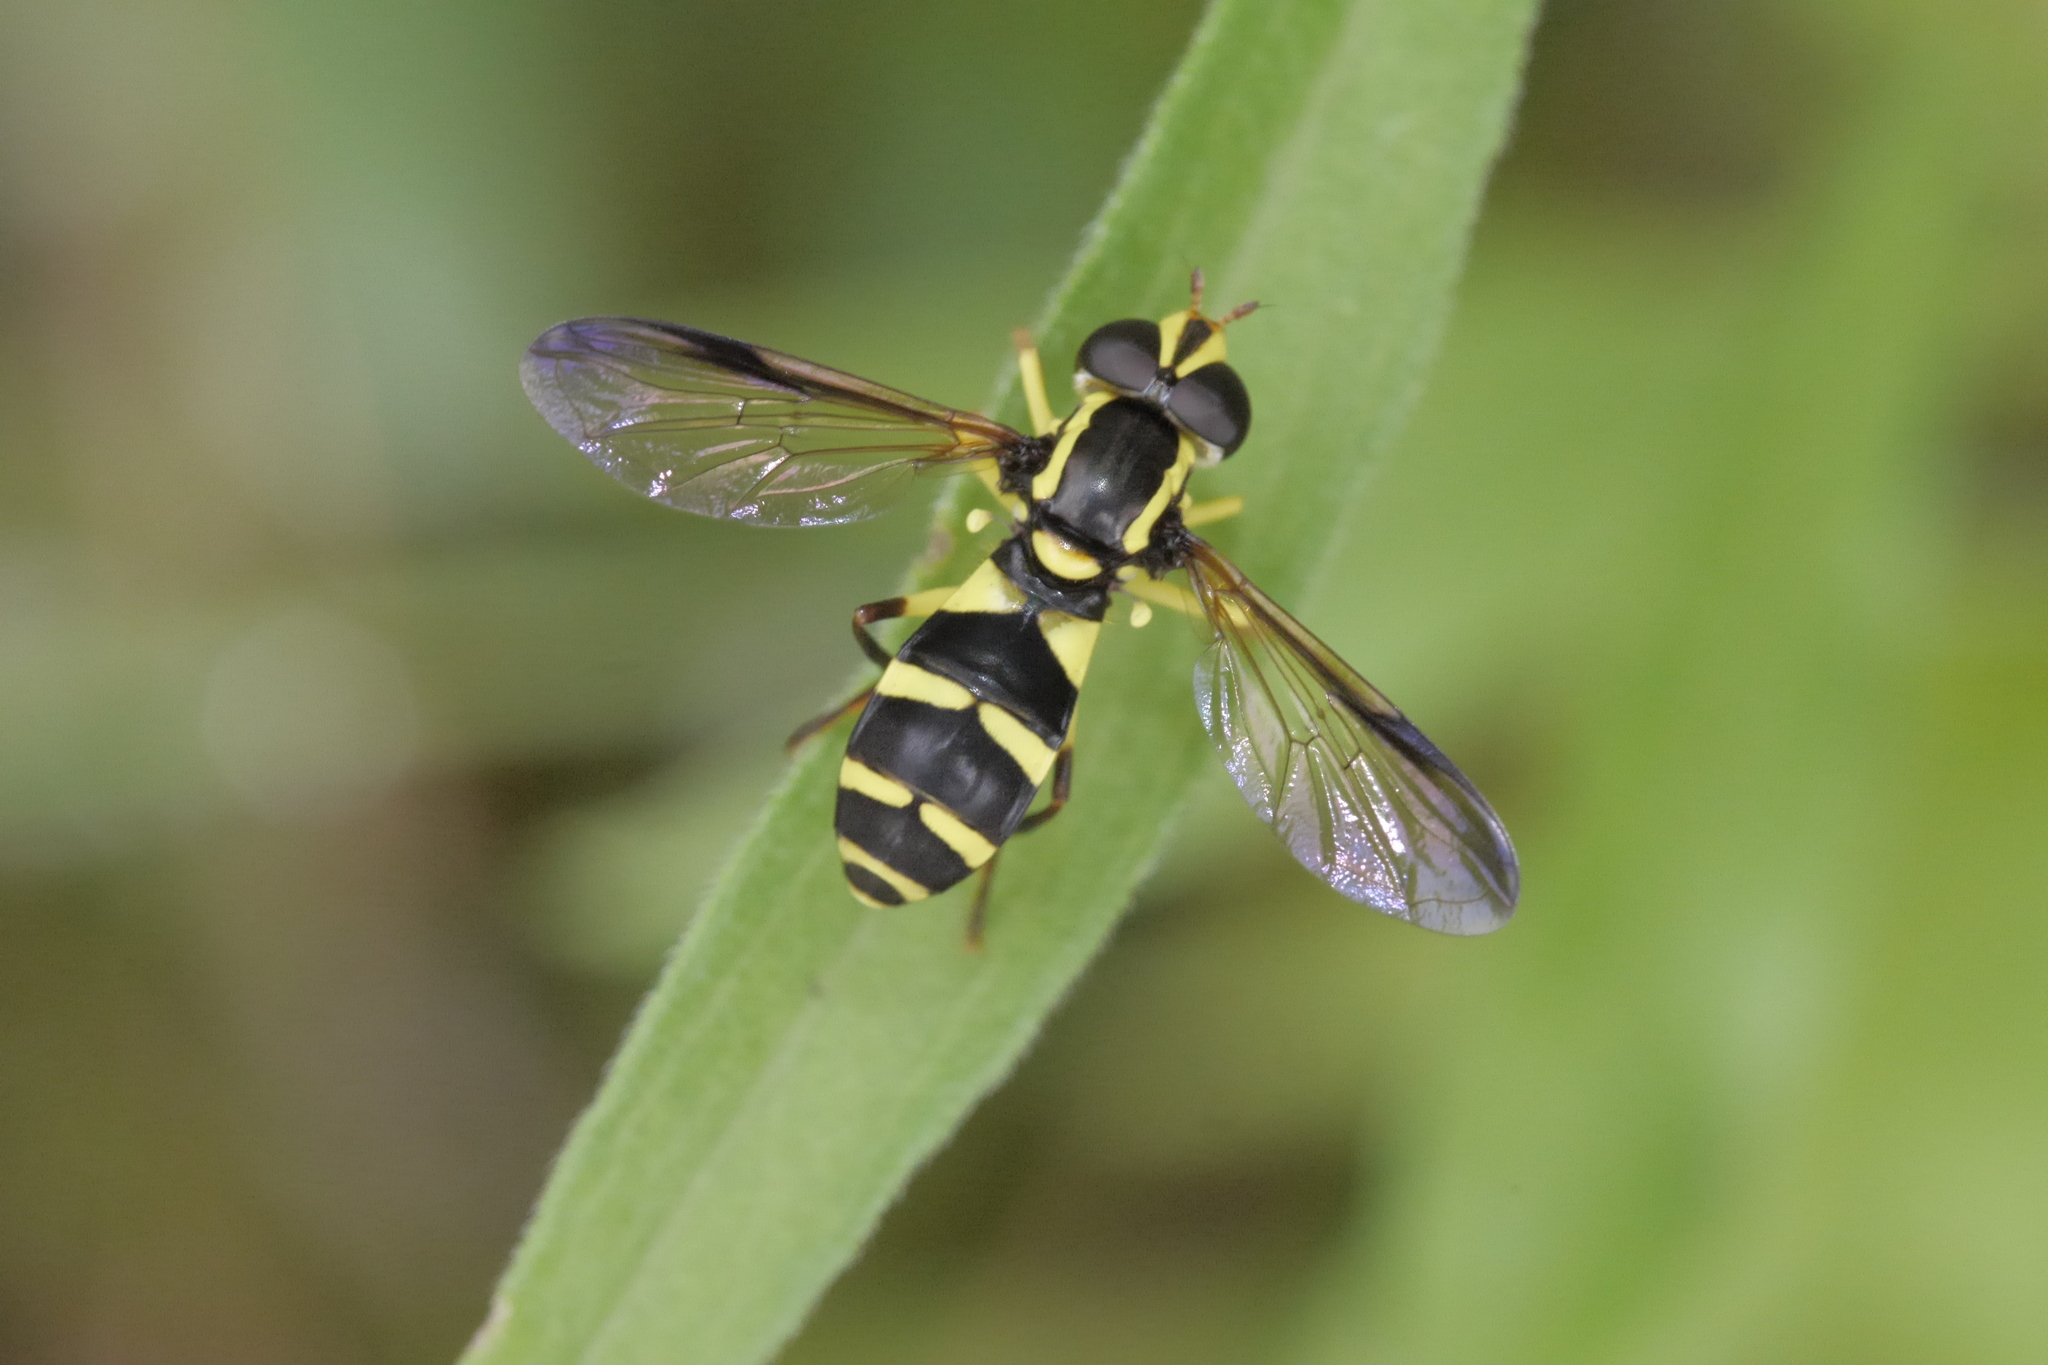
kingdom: Animalia
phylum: Arthropoda
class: Insecta
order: Diptera
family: Syrphidae
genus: Philhelius
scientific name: Philhelius dives
